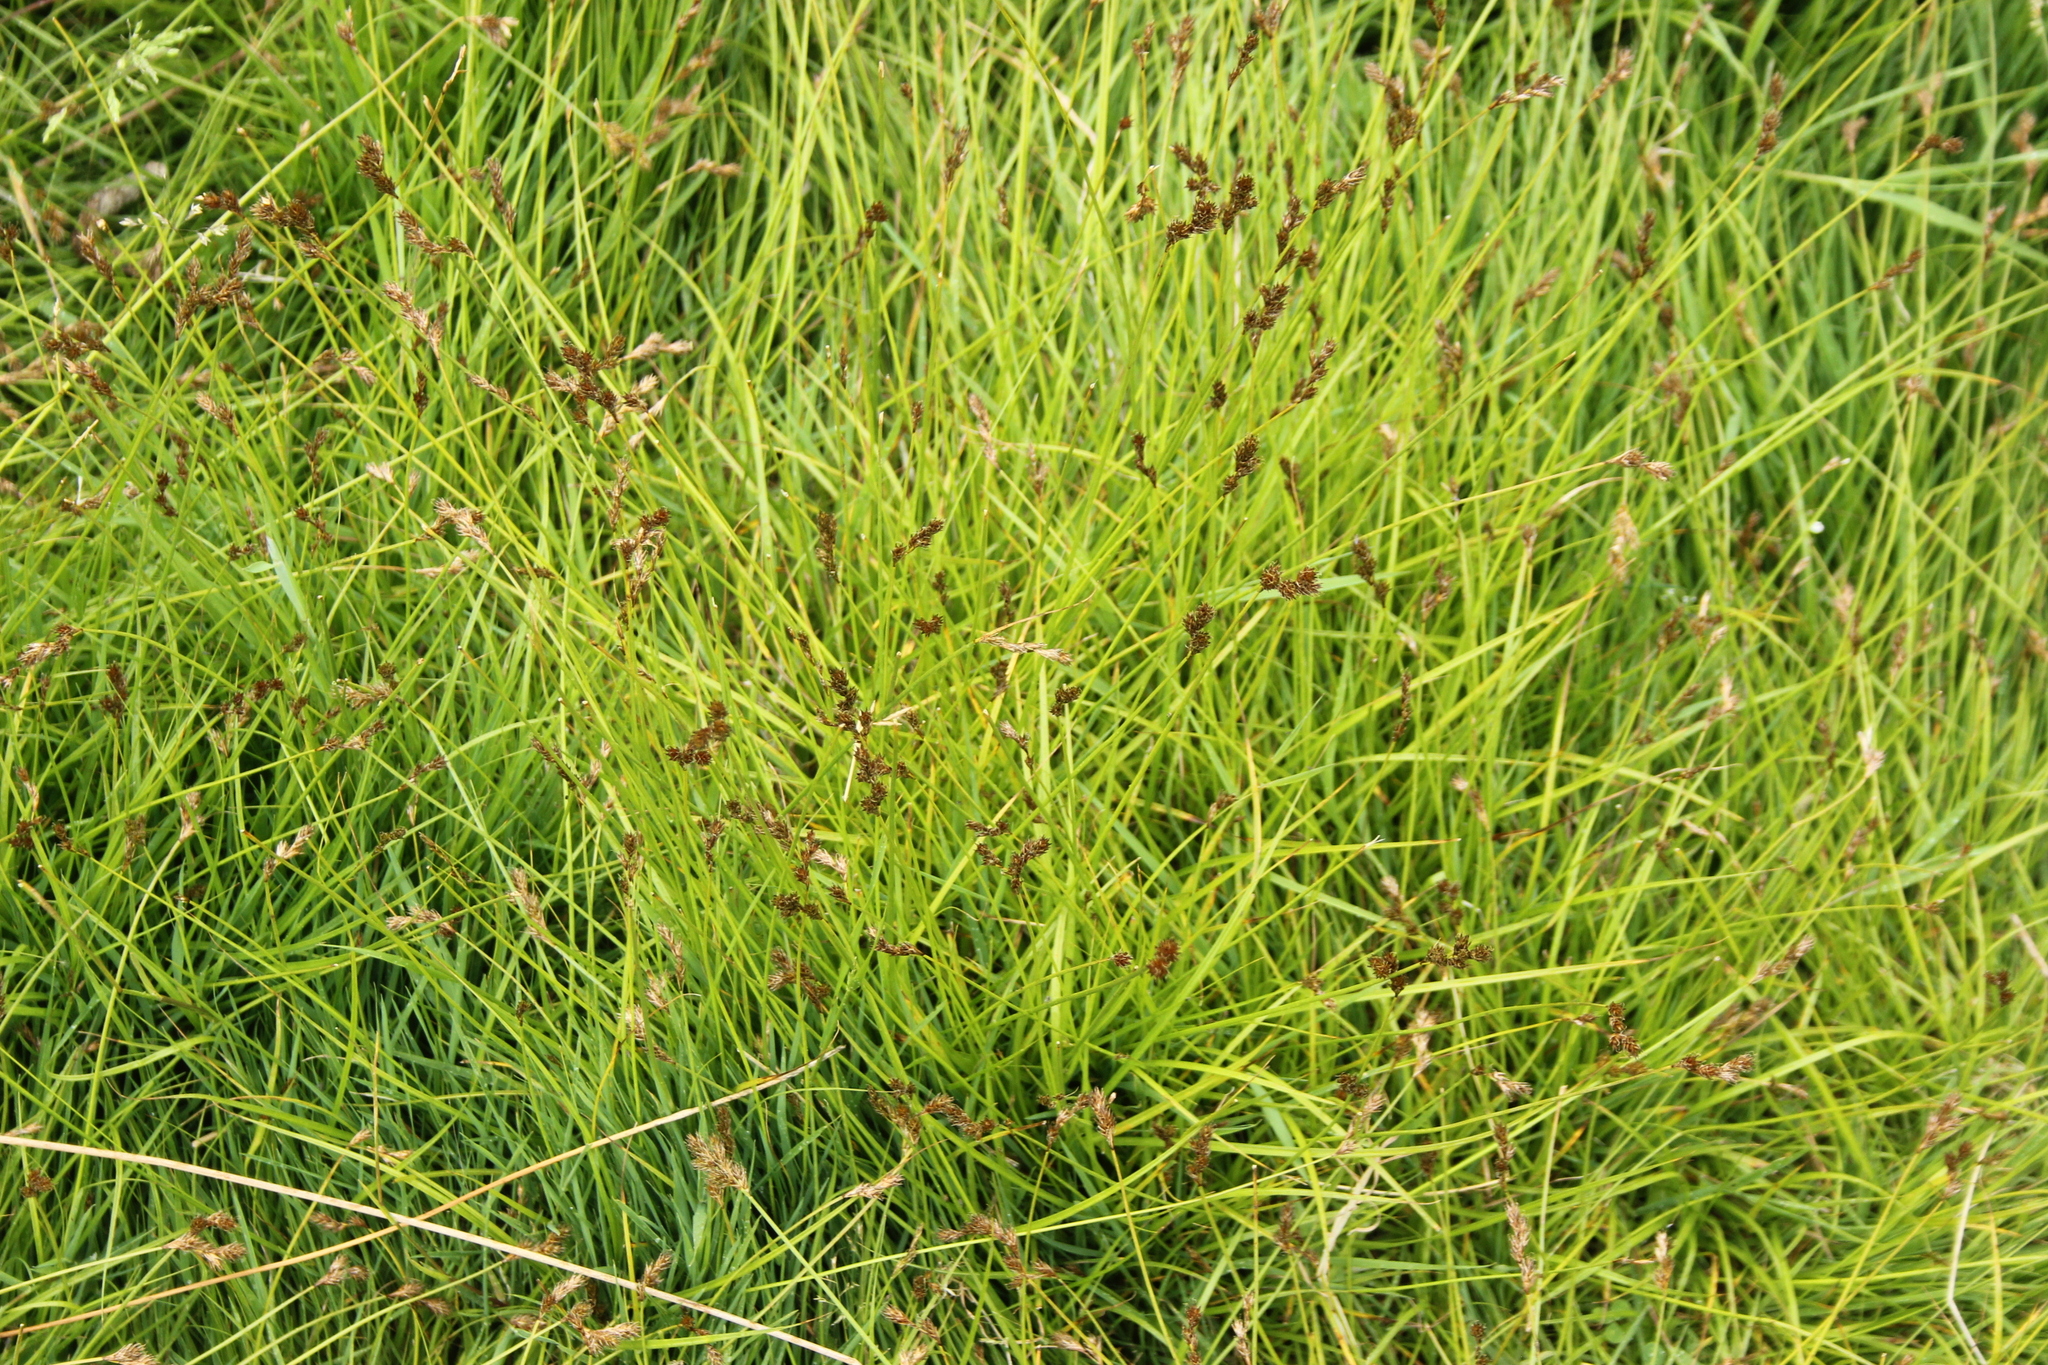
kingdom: Plantae
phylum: Tracheophyta
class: Liliopsida
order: Poales
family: Cyperaceae
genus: Carex
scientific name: Carex leporina
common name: Oval sedge
